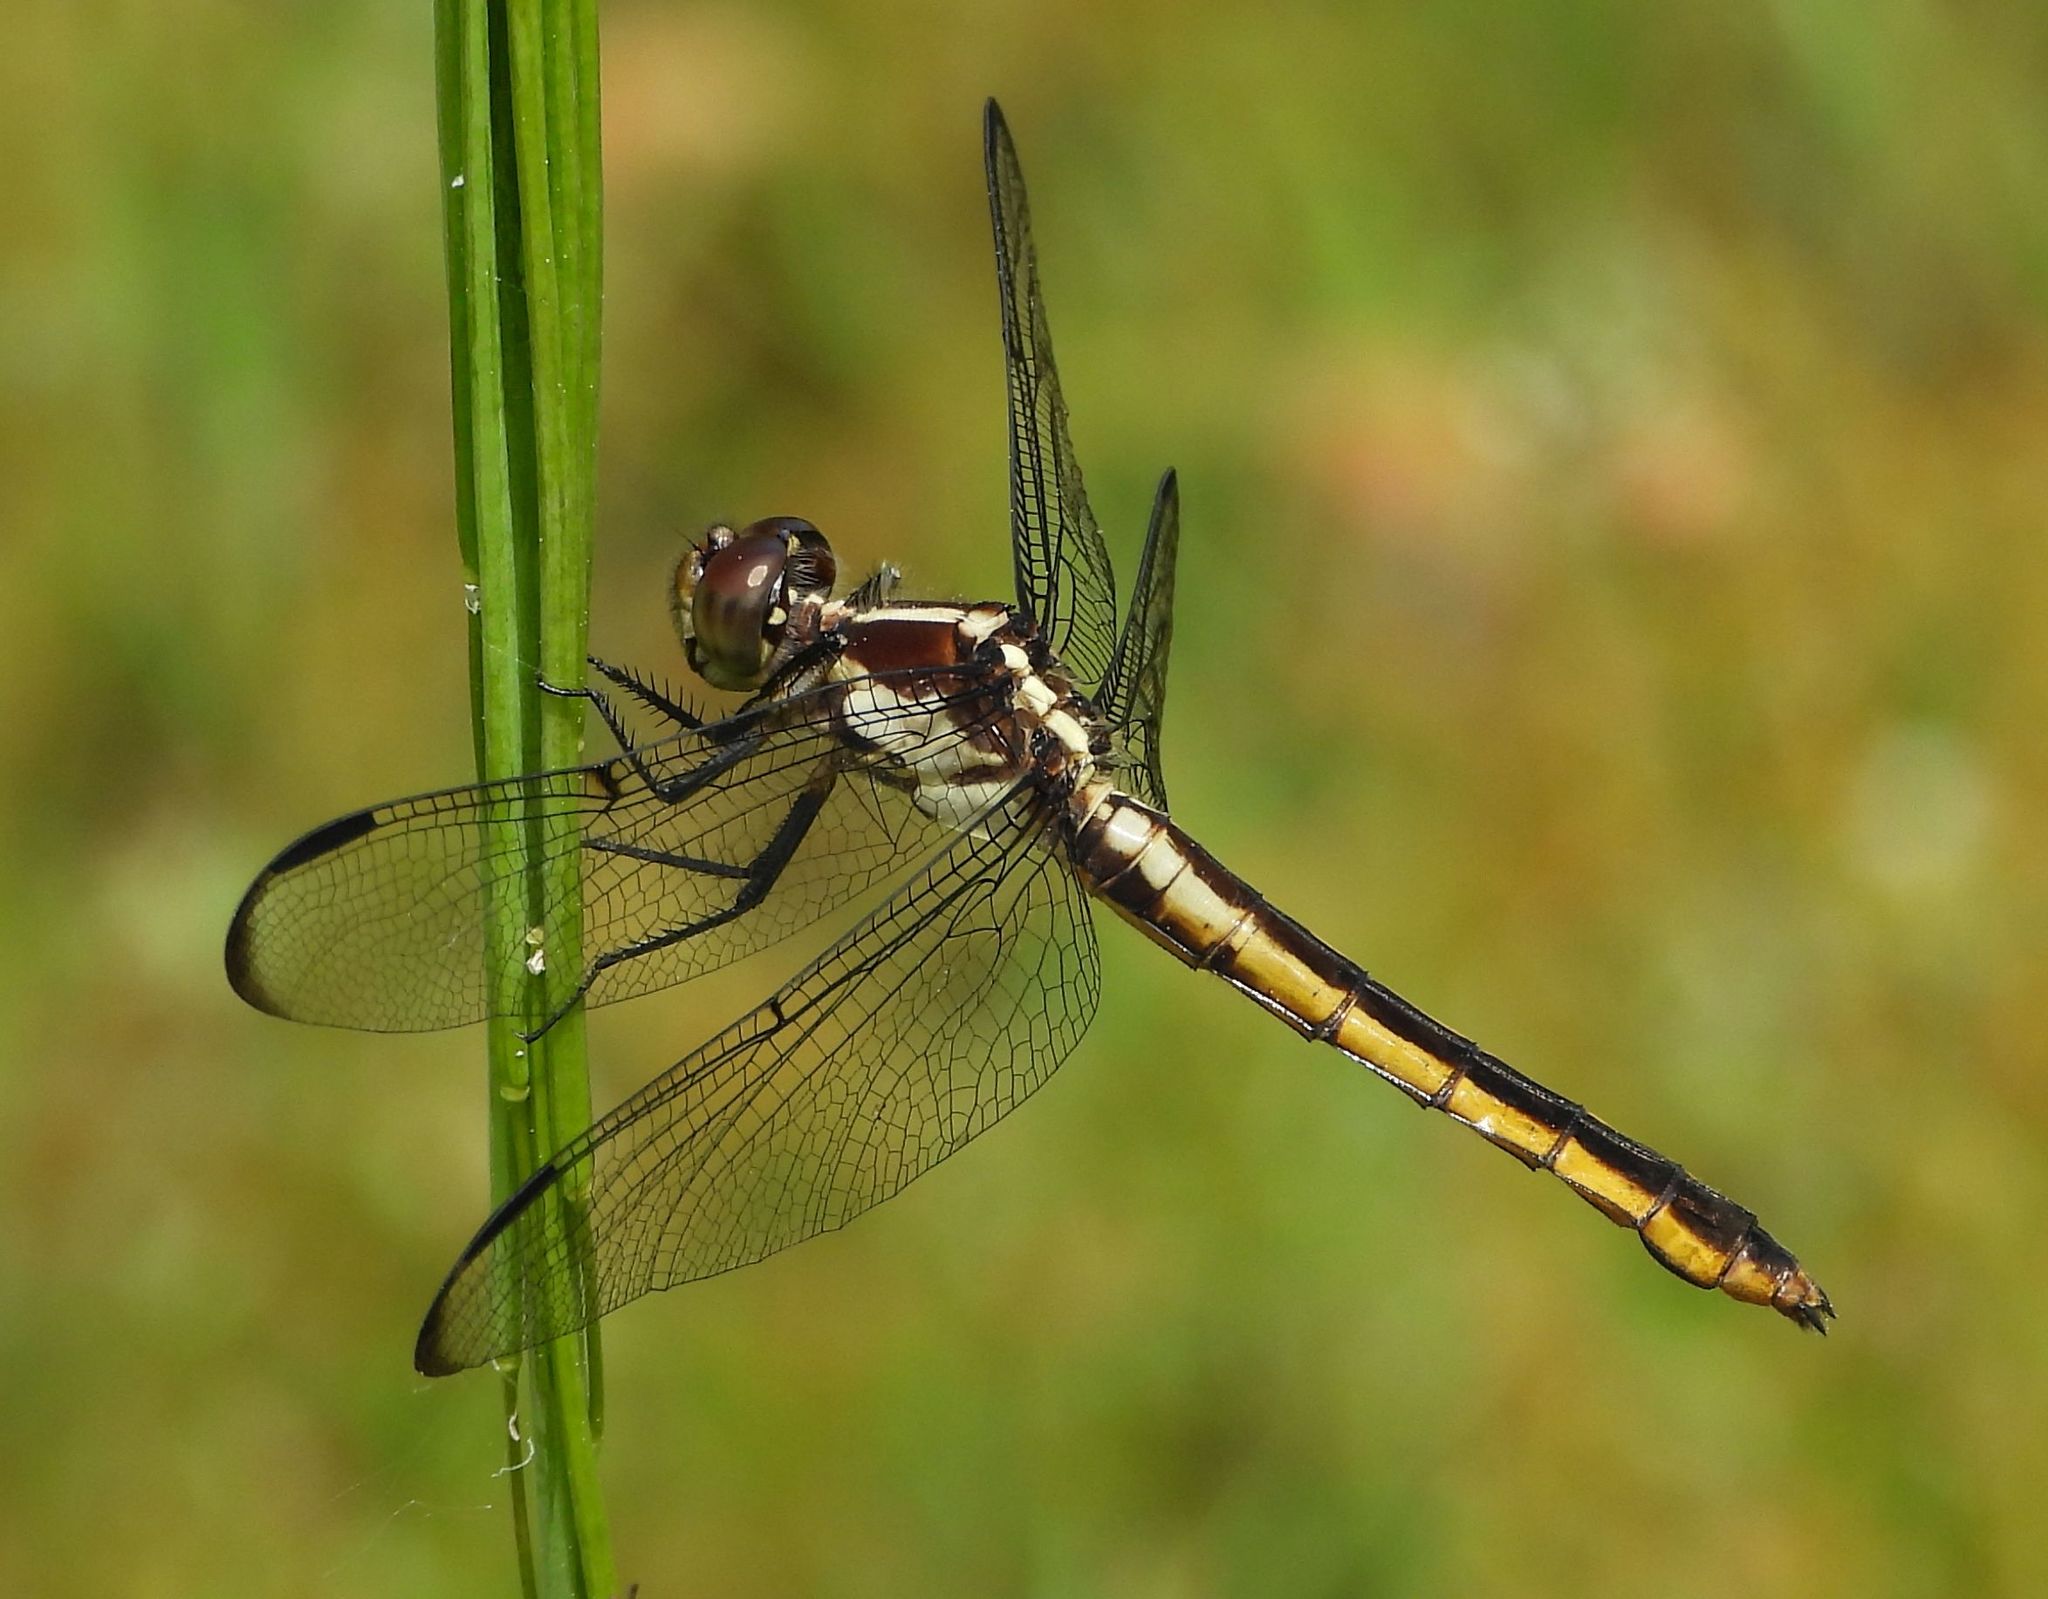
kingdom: Animalia
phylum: Arthropoda
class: Insecta
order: Odonata
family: Libellulidae
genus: Libellula
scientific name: Libellula incesta
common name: Slaty skimmer
